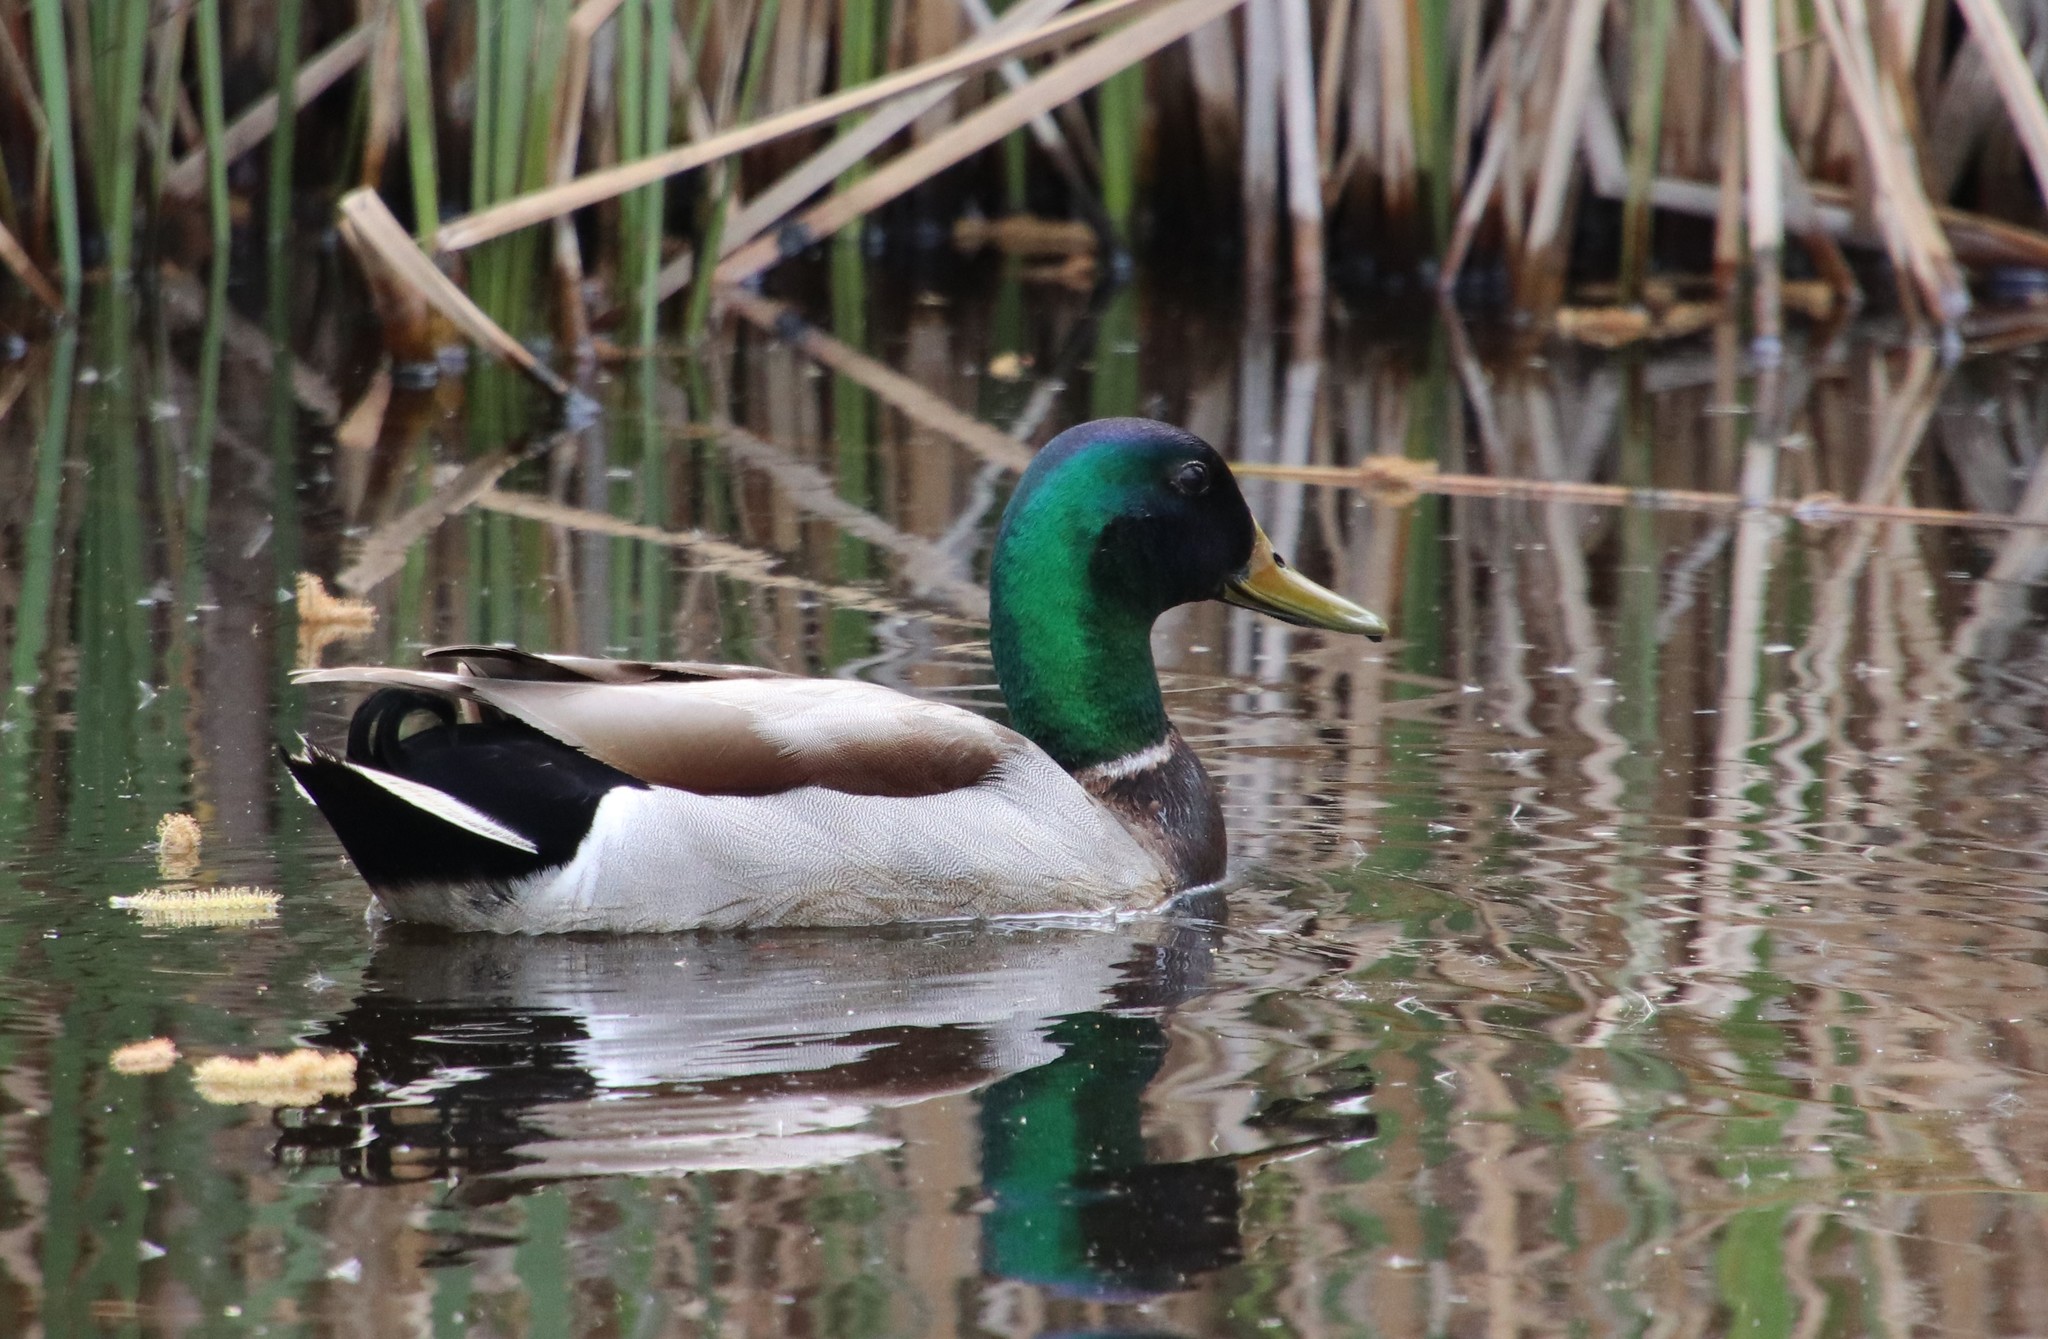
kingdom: Animalia
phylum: Chordata
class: Aves
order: Anseriformes
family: Anatidae
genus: Anas
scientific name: Anas platyrhynchos
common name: Mallard
